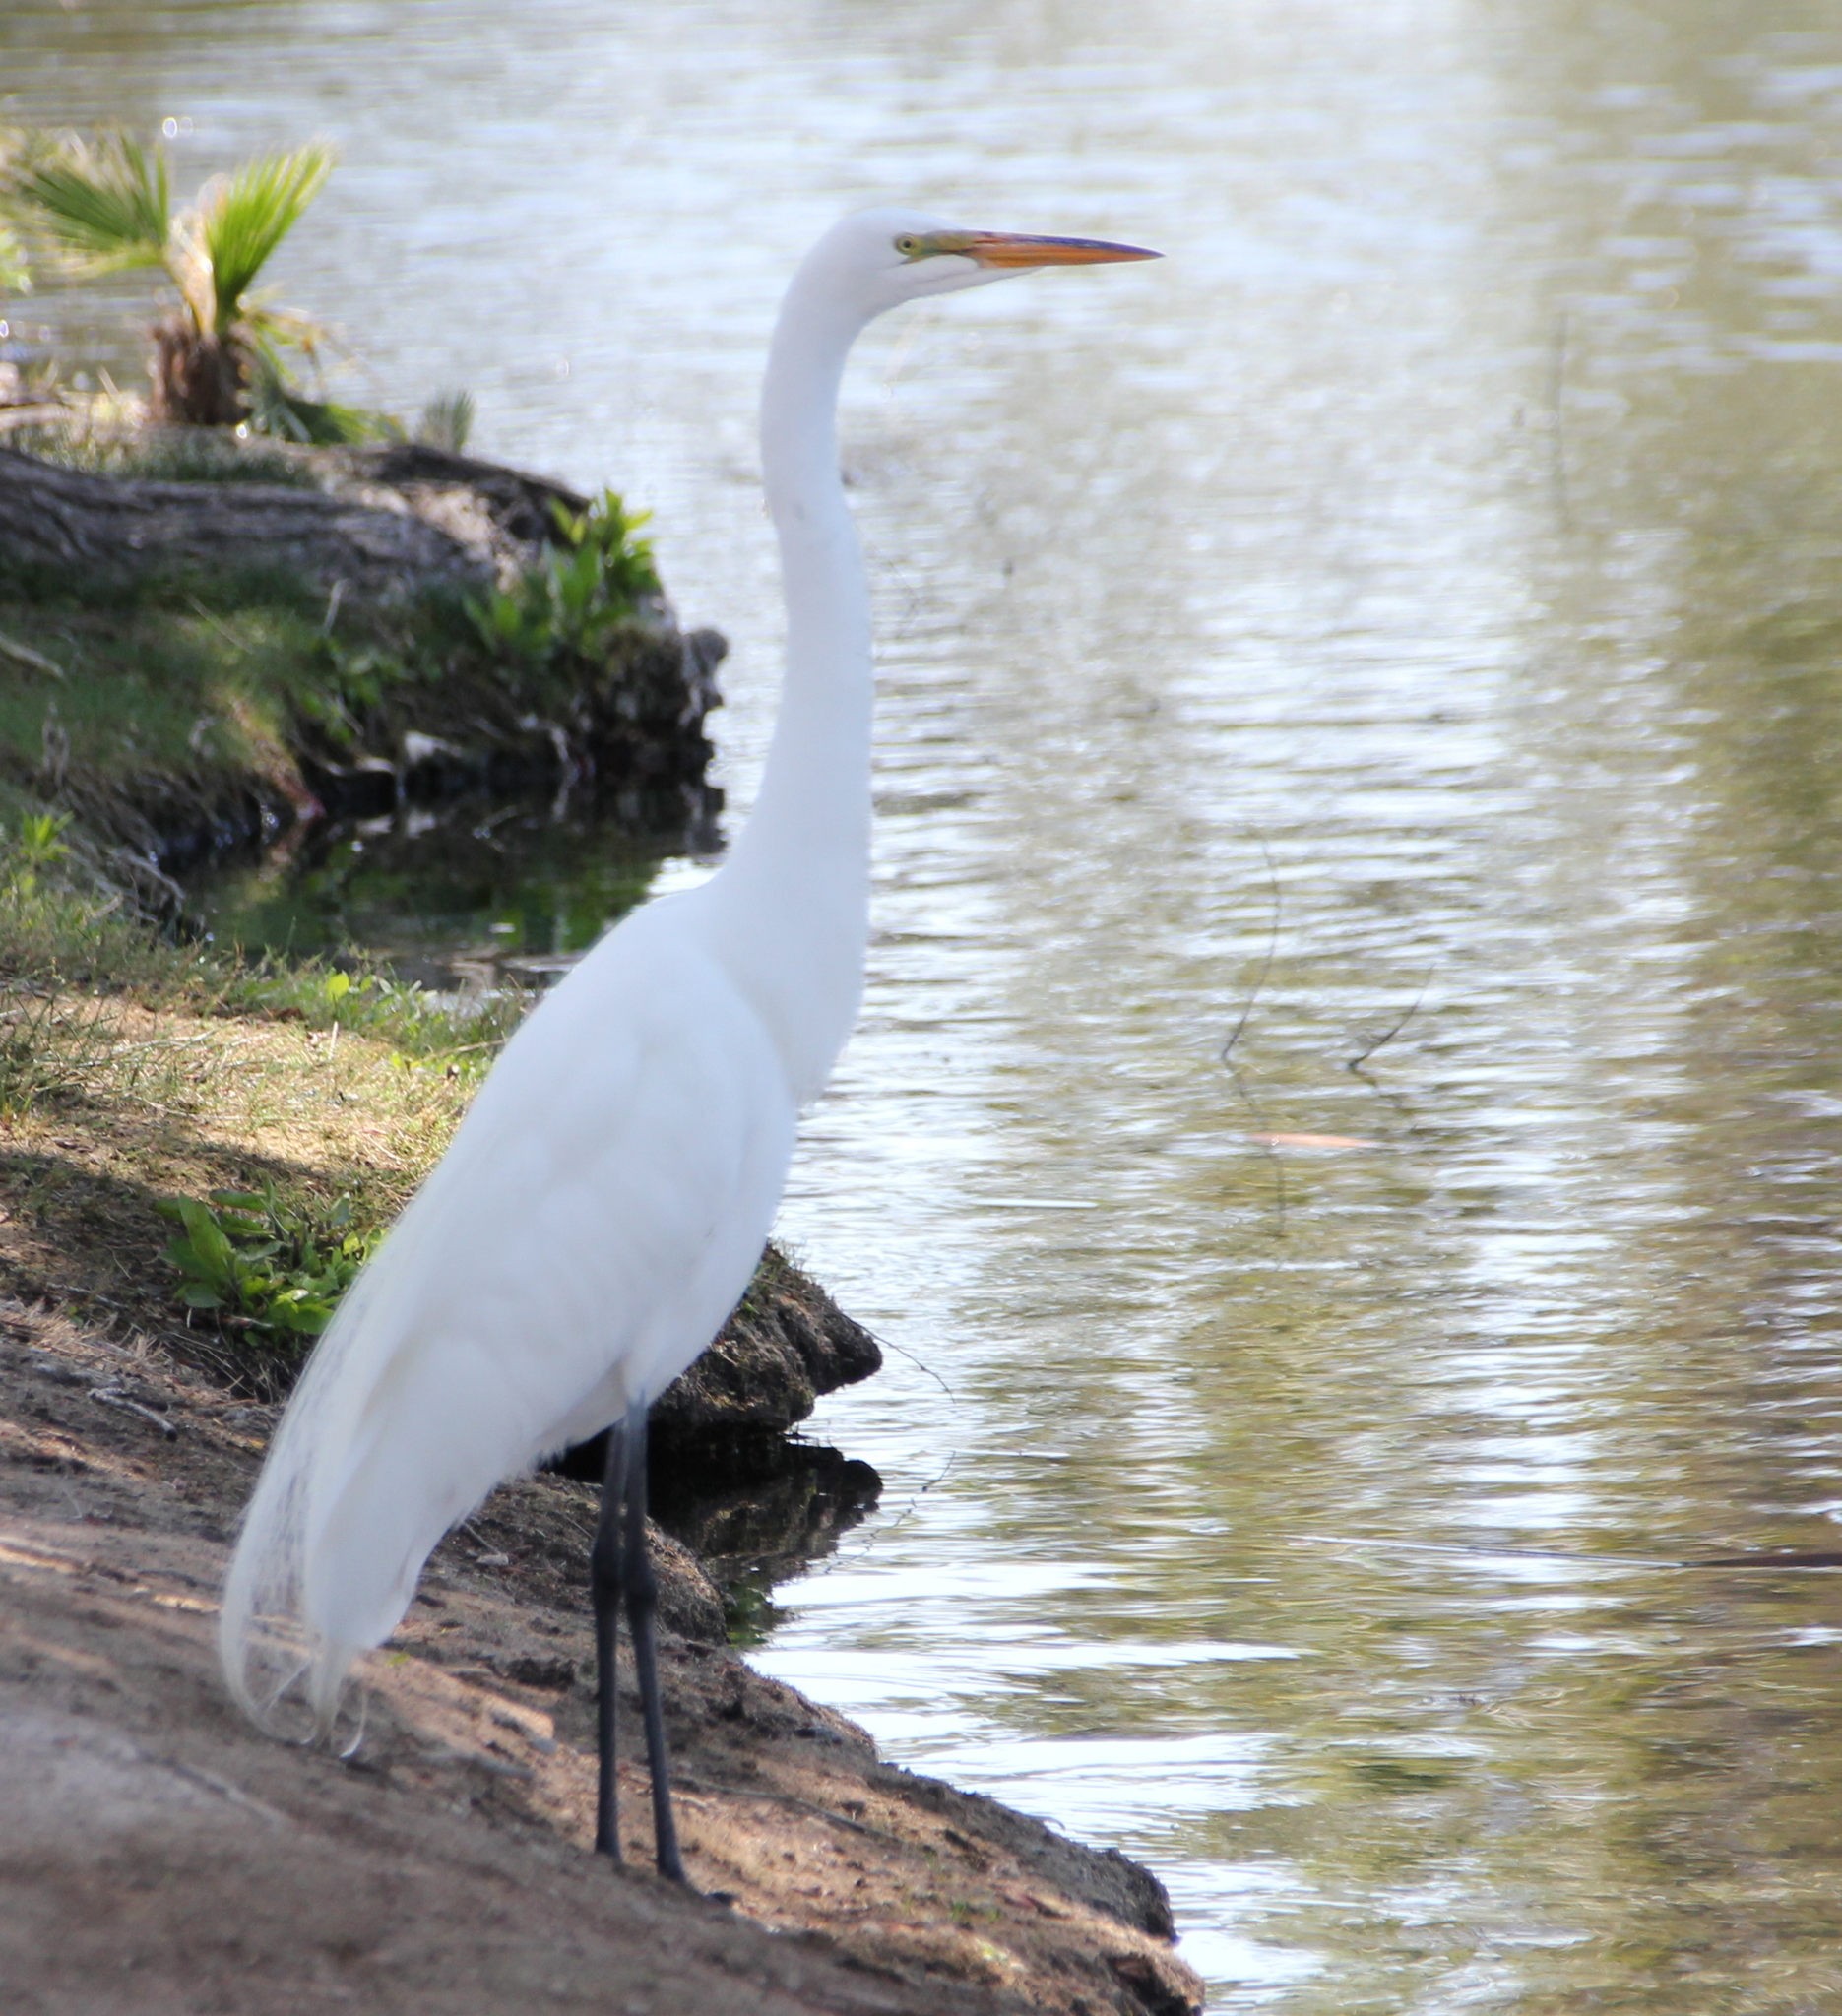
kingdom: Animalia
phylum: Chordata
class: Aves
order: Pelecaniformes
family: Ardeidae
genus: Ardea
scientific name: Ardea alba
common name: Great egret
